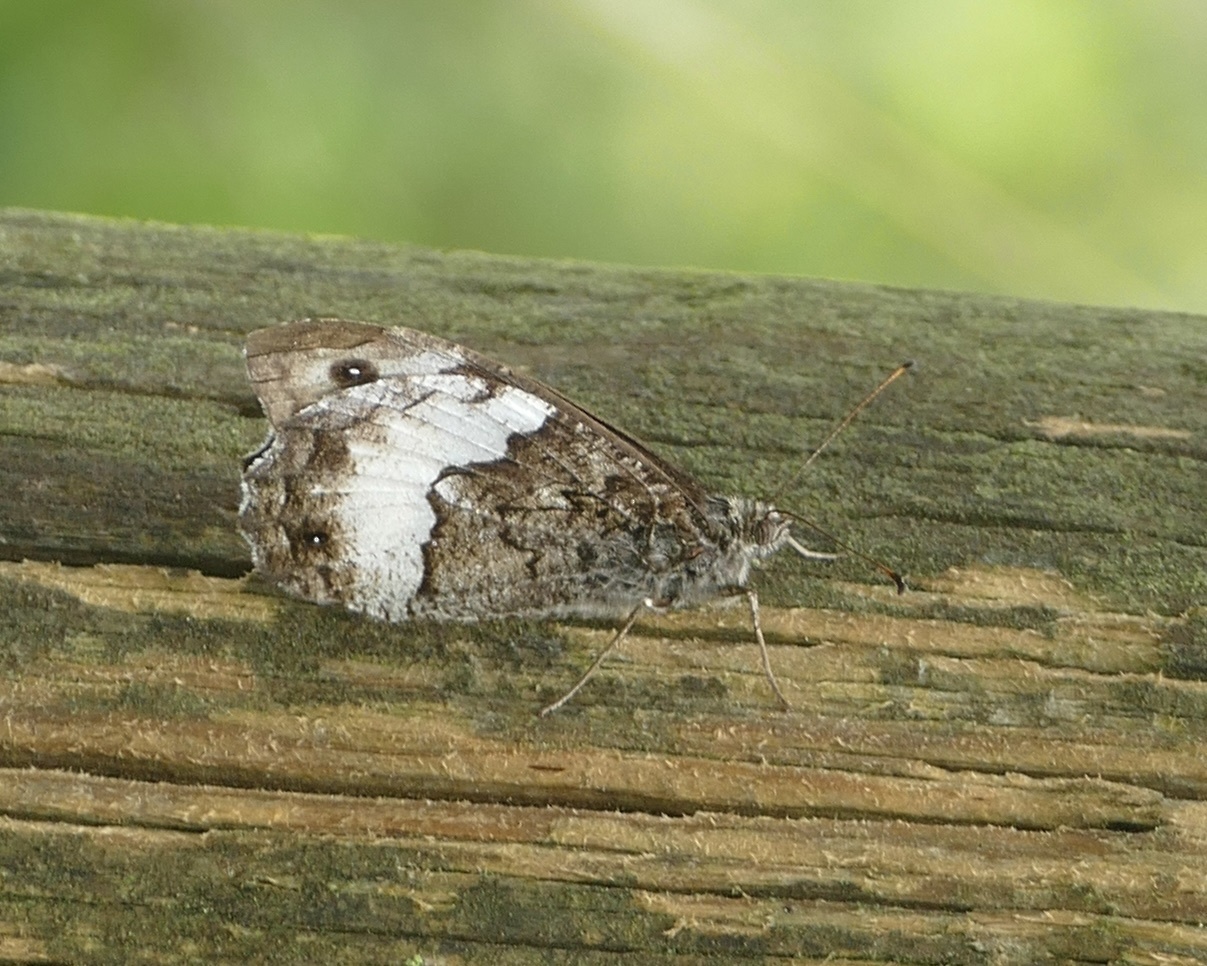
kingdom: Animalia
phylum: Arthropoda
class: Insecta
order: Lepidoptera
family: Nymphalidae
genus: Hipparchia
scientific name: Hipparchia fagi
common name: Woodland grayling
